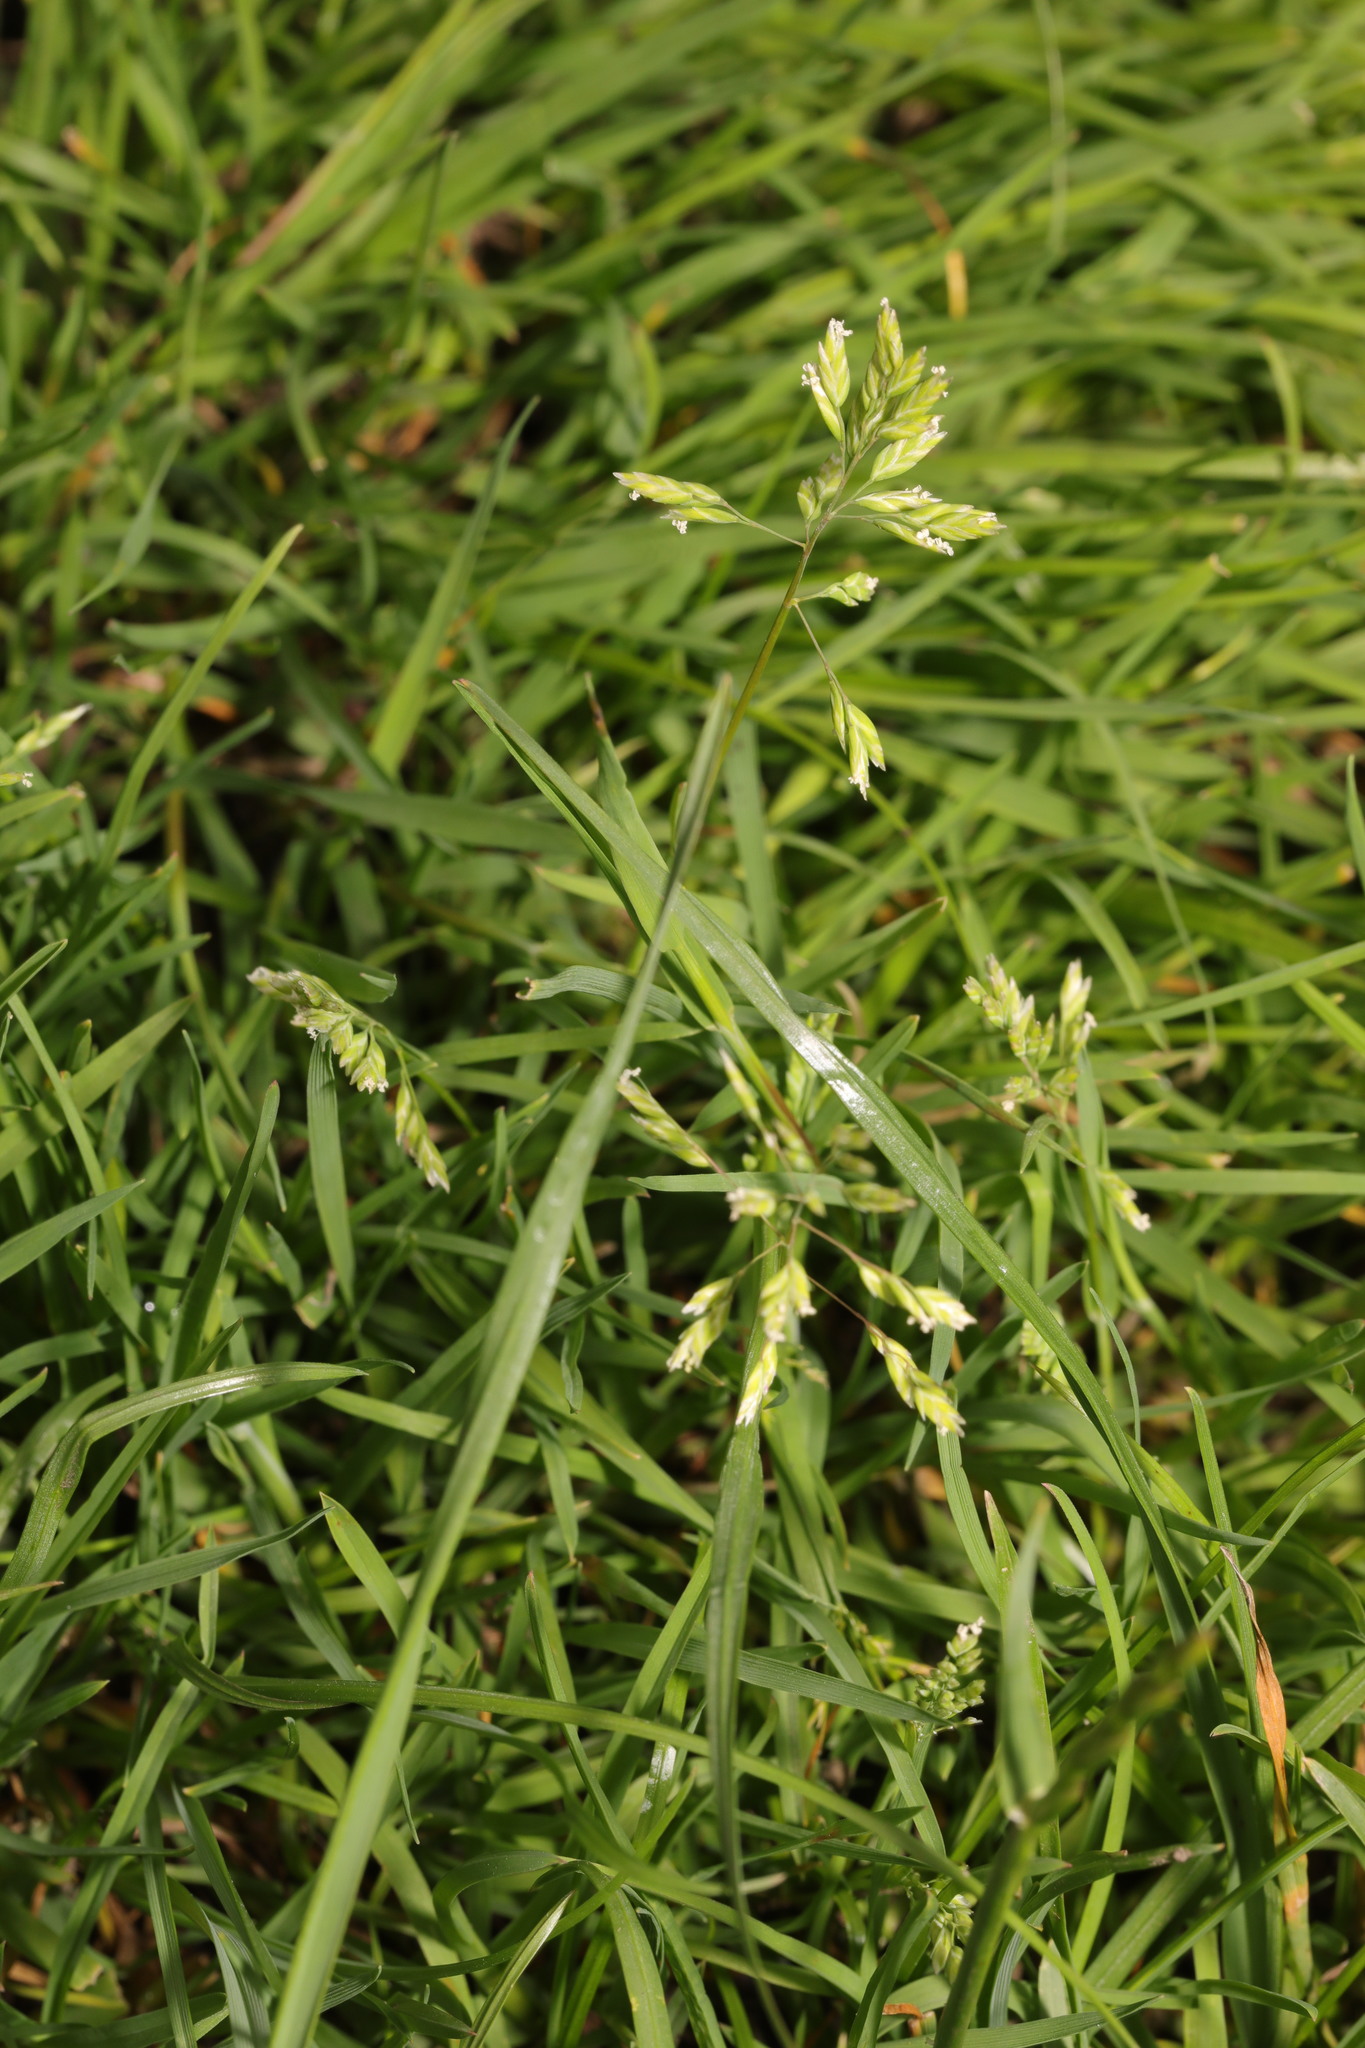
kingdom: Plantae
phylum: Tracheophyta
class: Liliopsida
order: Poales
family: Poaceae
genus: Poa
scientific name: Poa annua
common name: Annual bluegrass
